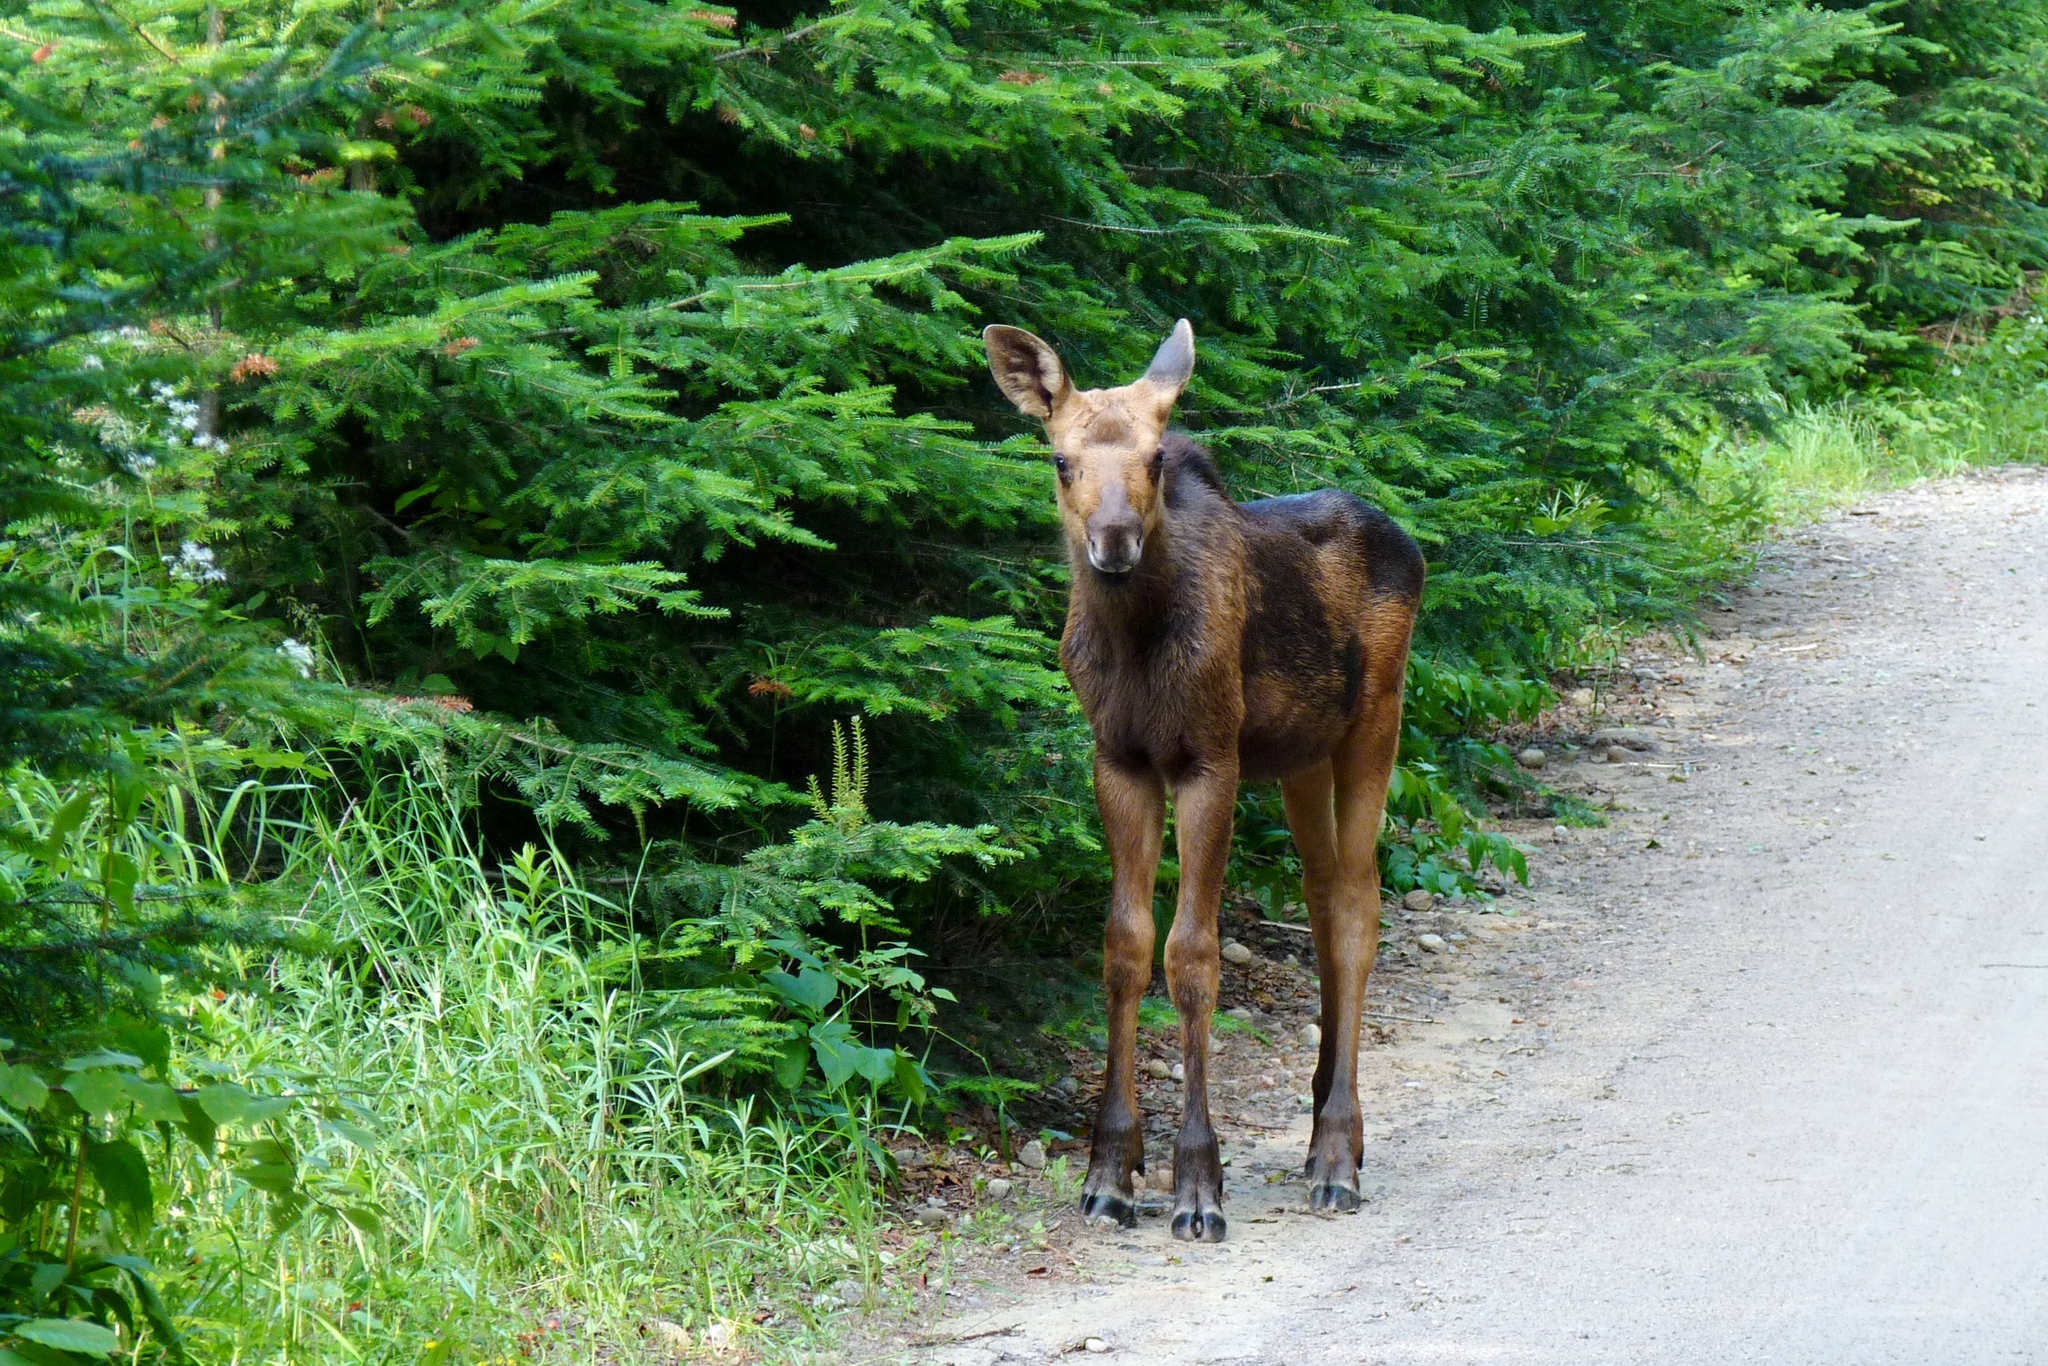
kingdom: Animalia
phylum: Chordata
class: Mammalia
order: Artiodactyla
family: Cervidae
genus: Alces
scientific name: Alces alces
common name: Moose
